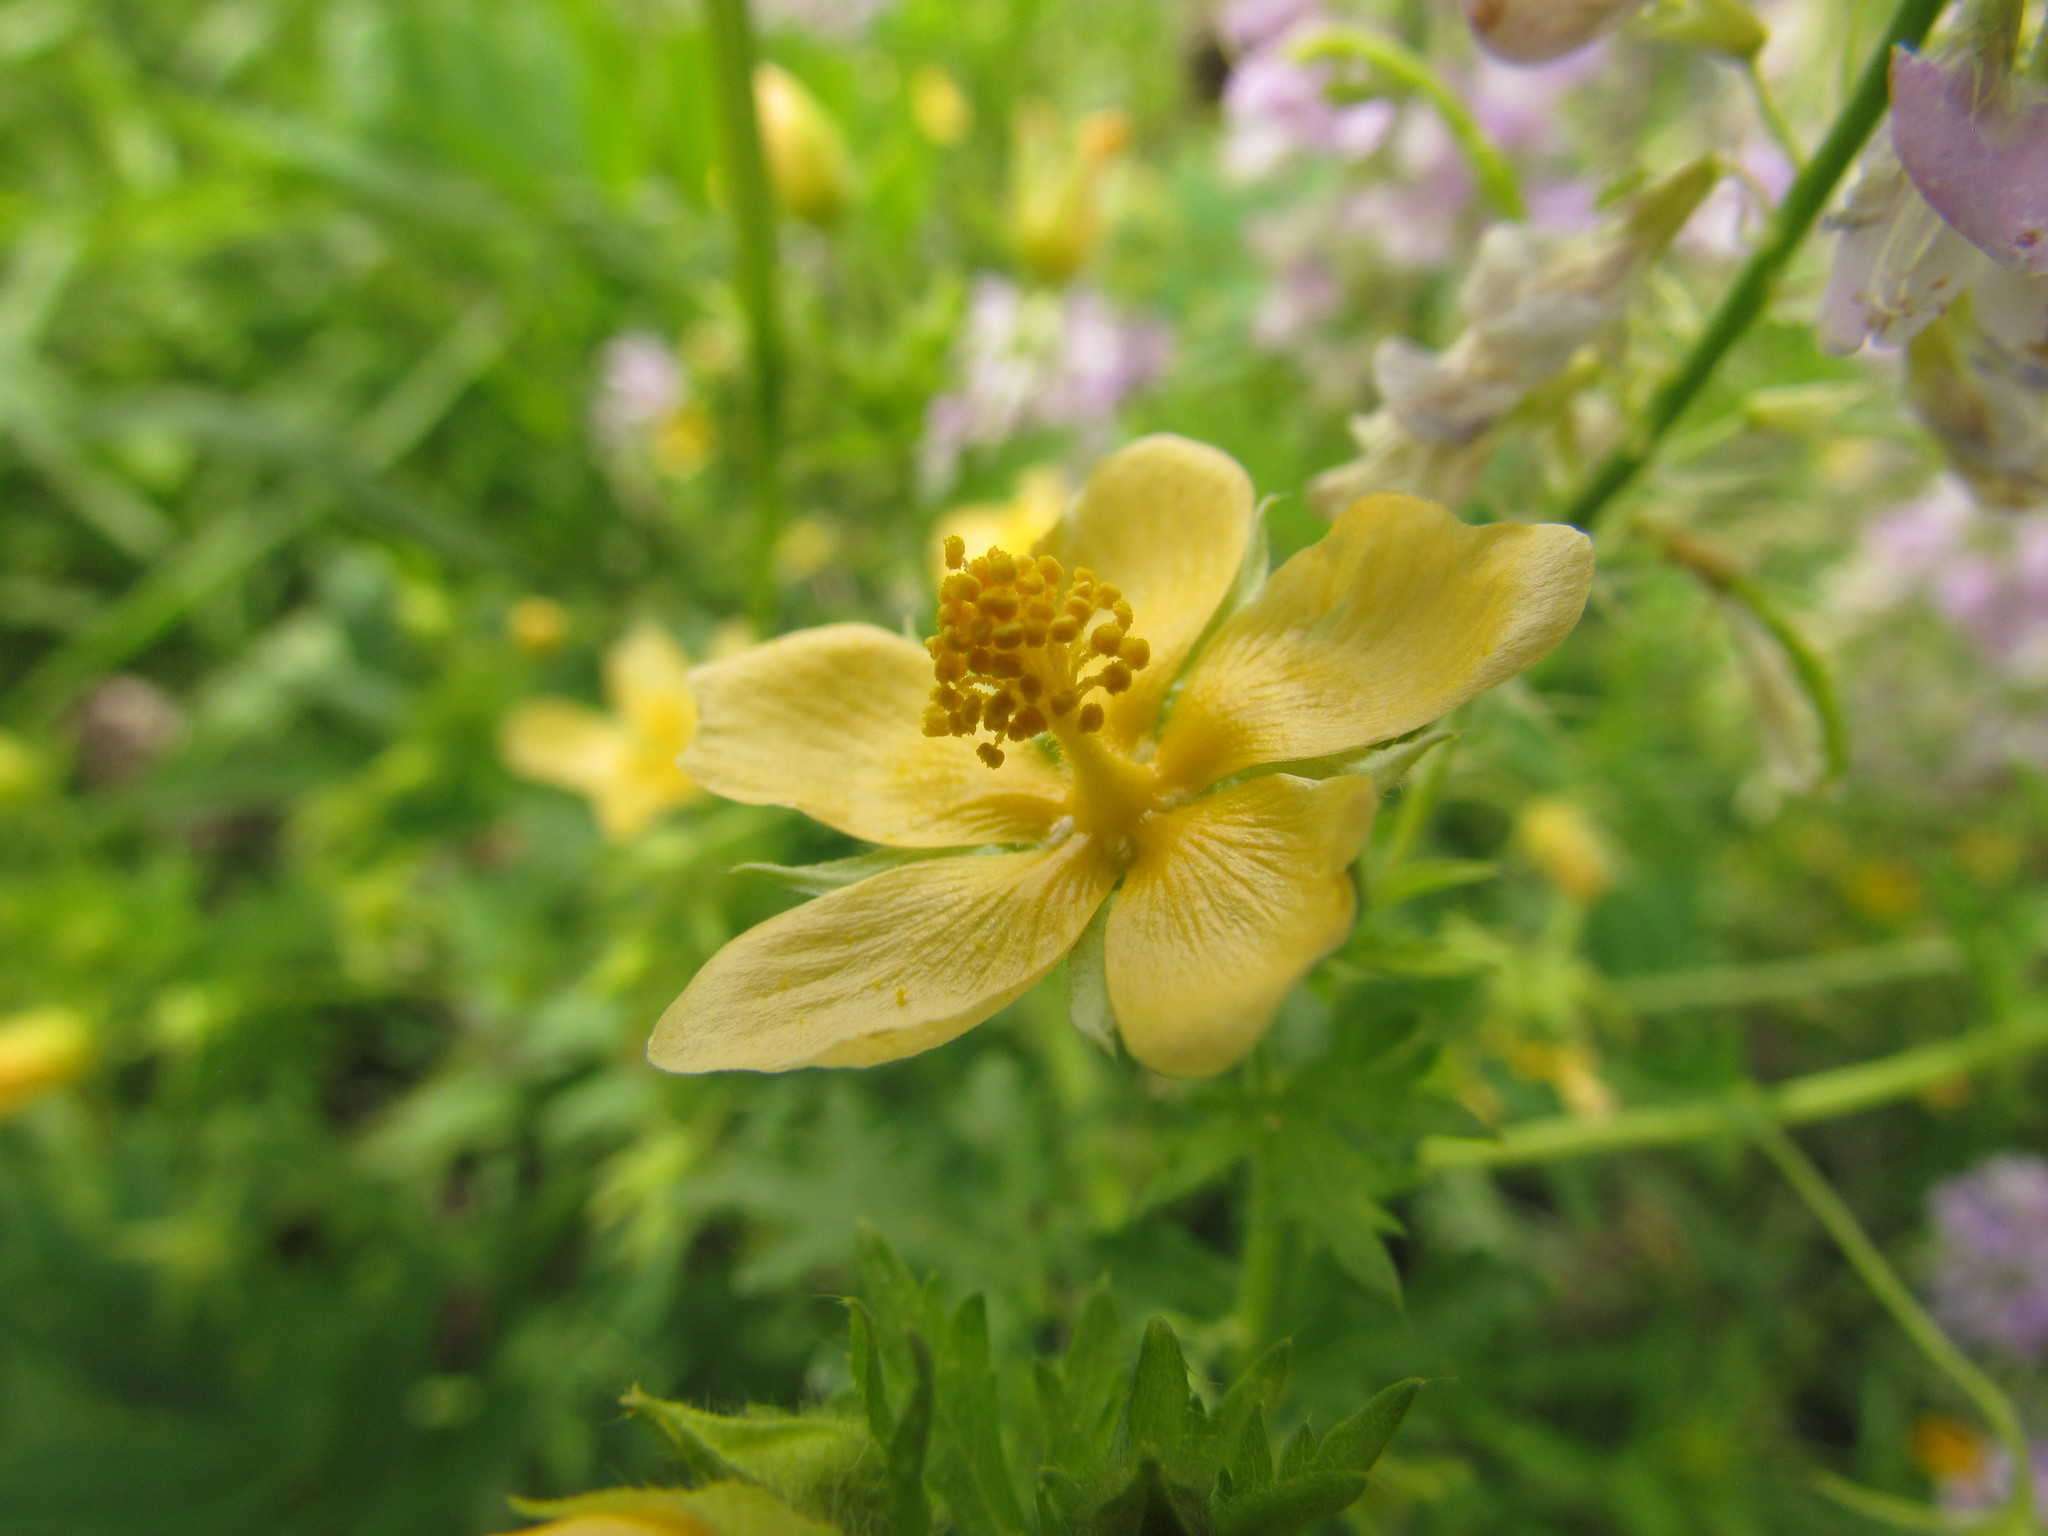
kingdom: Plantae
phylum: Tracheophyta
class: Magnoliopsida
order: Malvales
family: Malvaceae
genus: Modiolastrum
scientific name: Modiolastrum malvifolium
